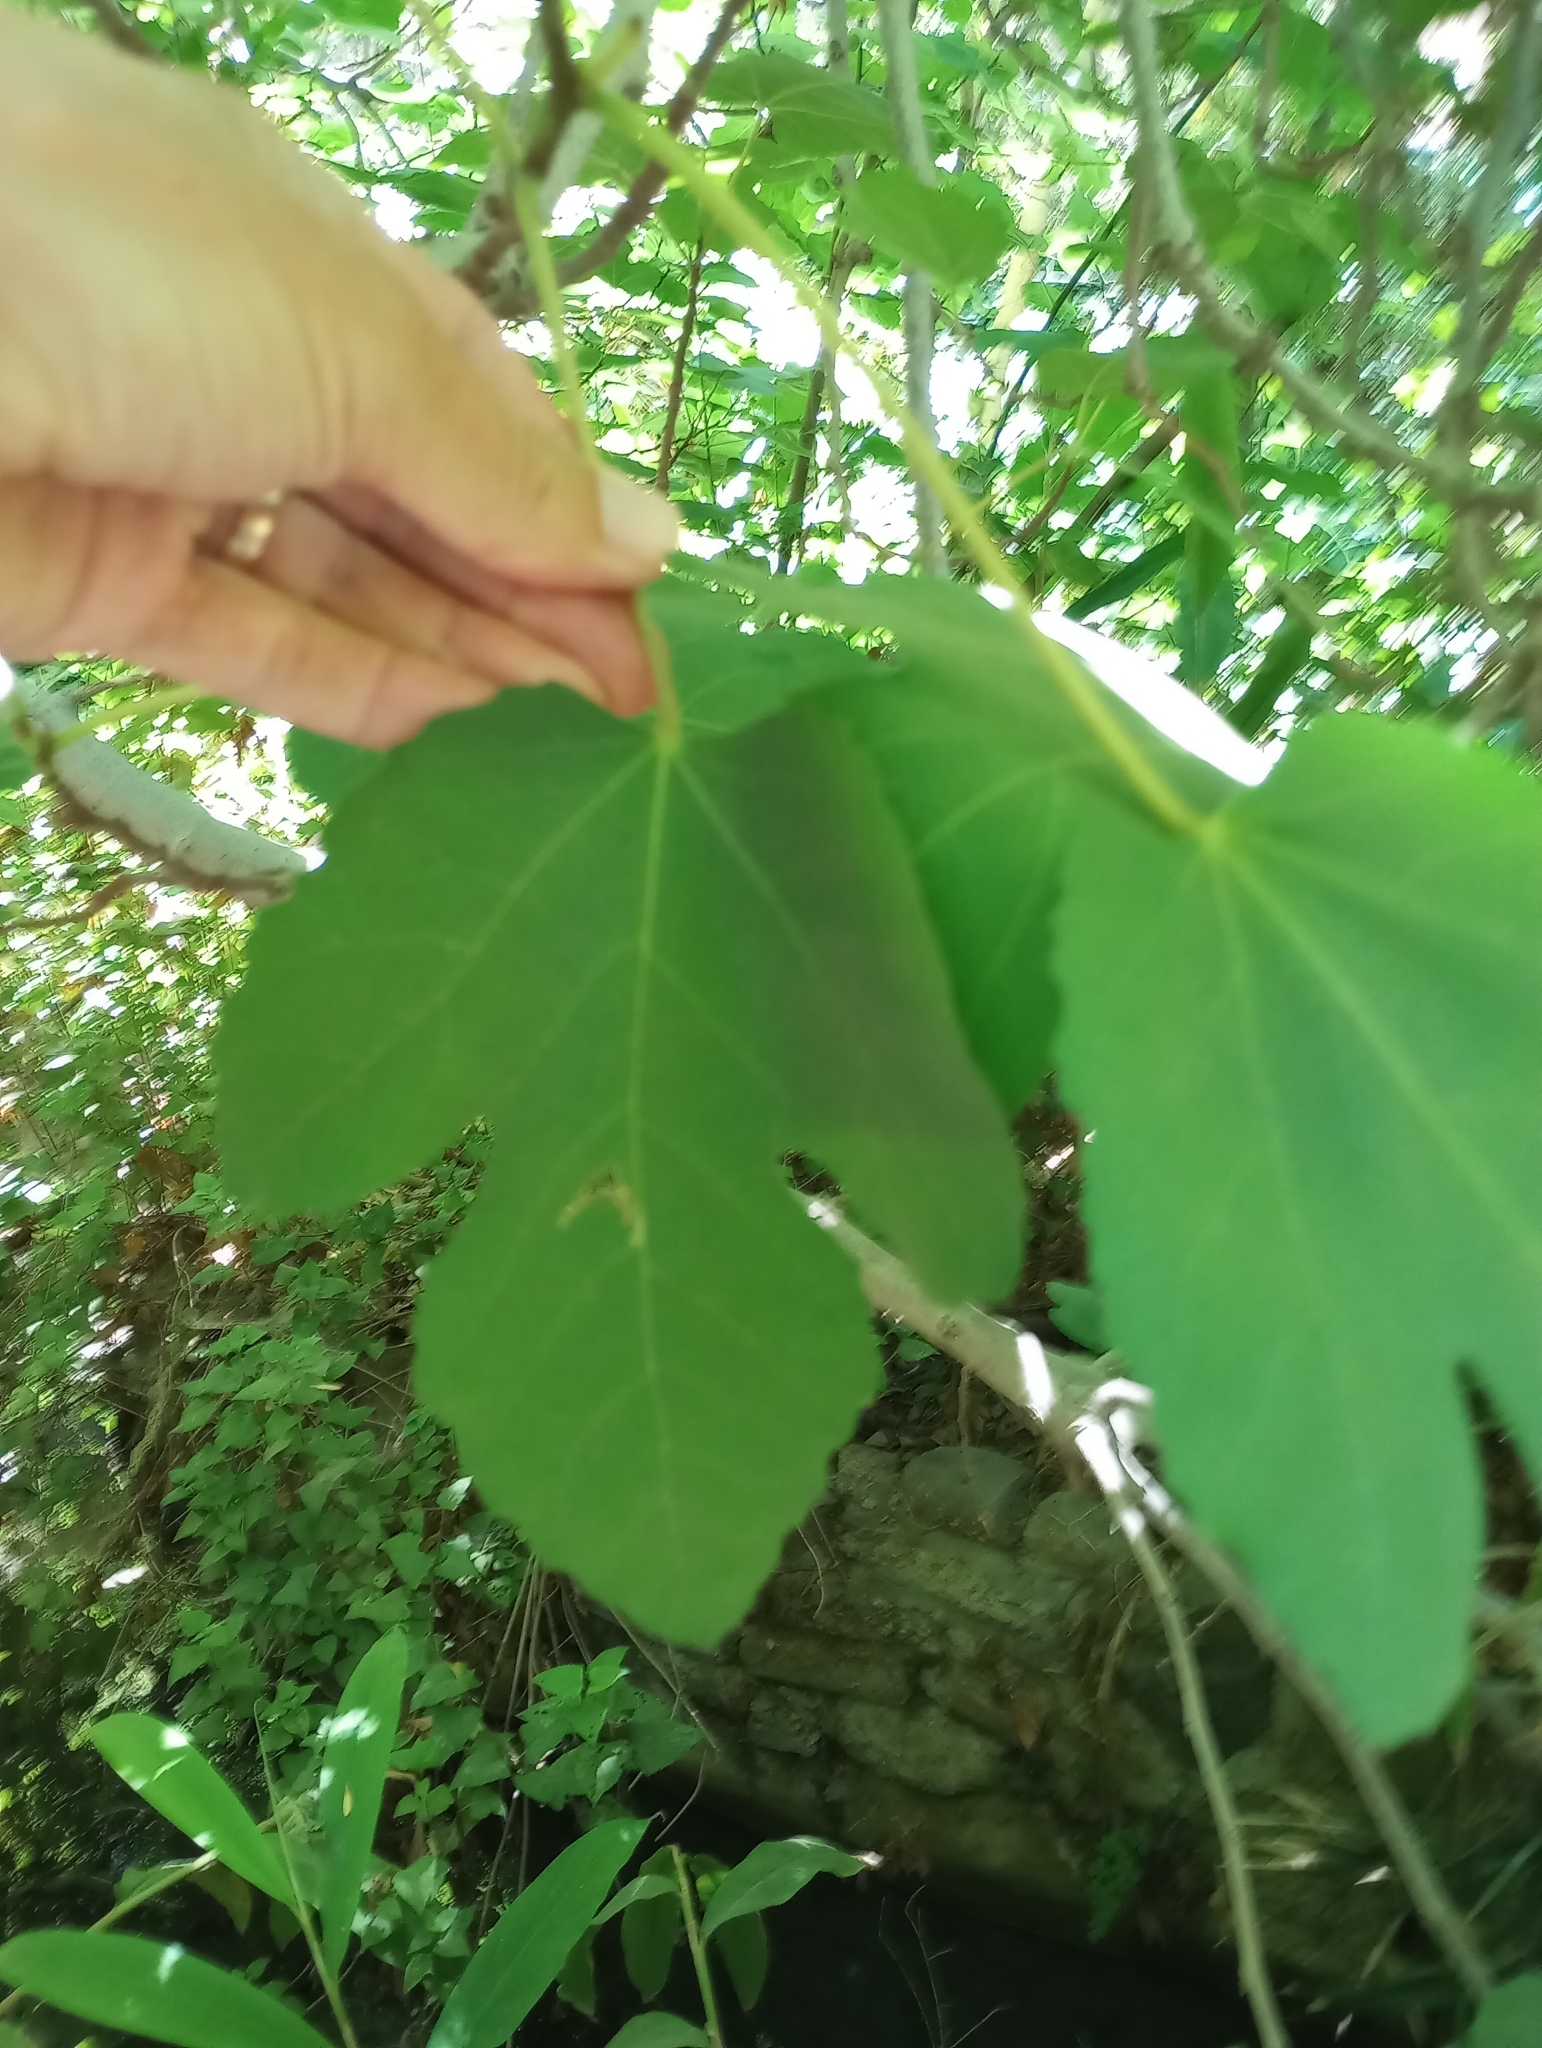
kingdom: Plantae
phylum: Tracheophyta
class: Magnoliopsida
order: Rosales
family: Moraceae
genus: Ficus
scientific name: Ficus carica
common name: Fig
